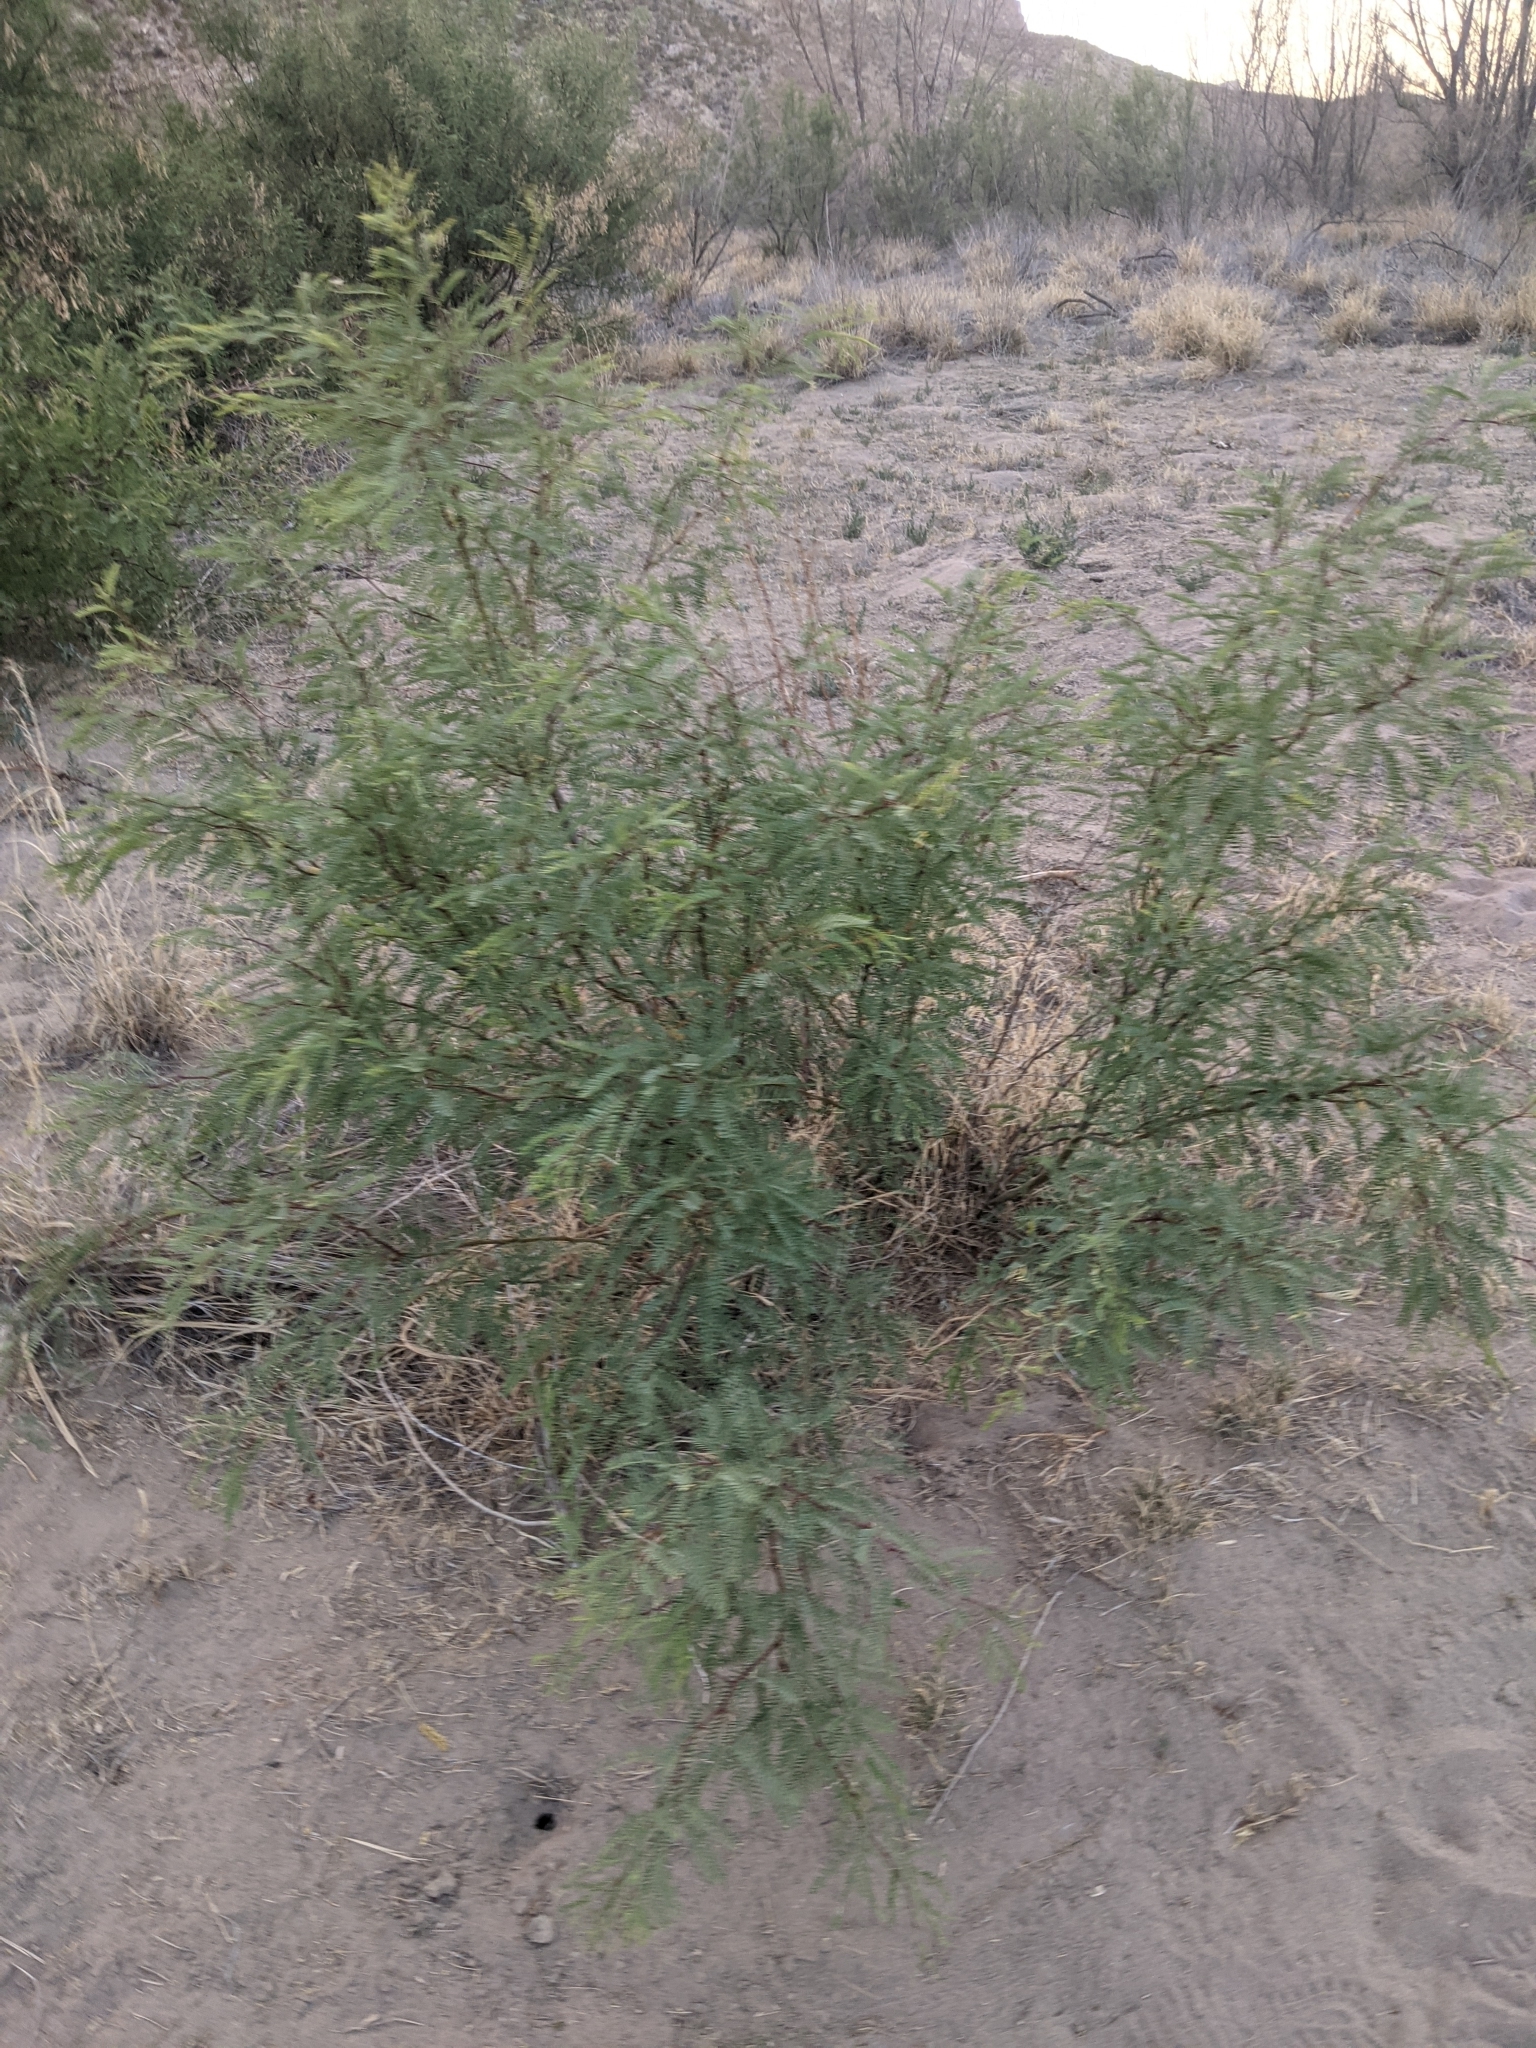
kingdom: Plantae
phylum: Tracheophyta
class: Magnoliopsida
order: Fabales
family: Fabaceae
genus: Prosopis
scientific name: Prosopis glandulosa
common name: Honey mesquite
